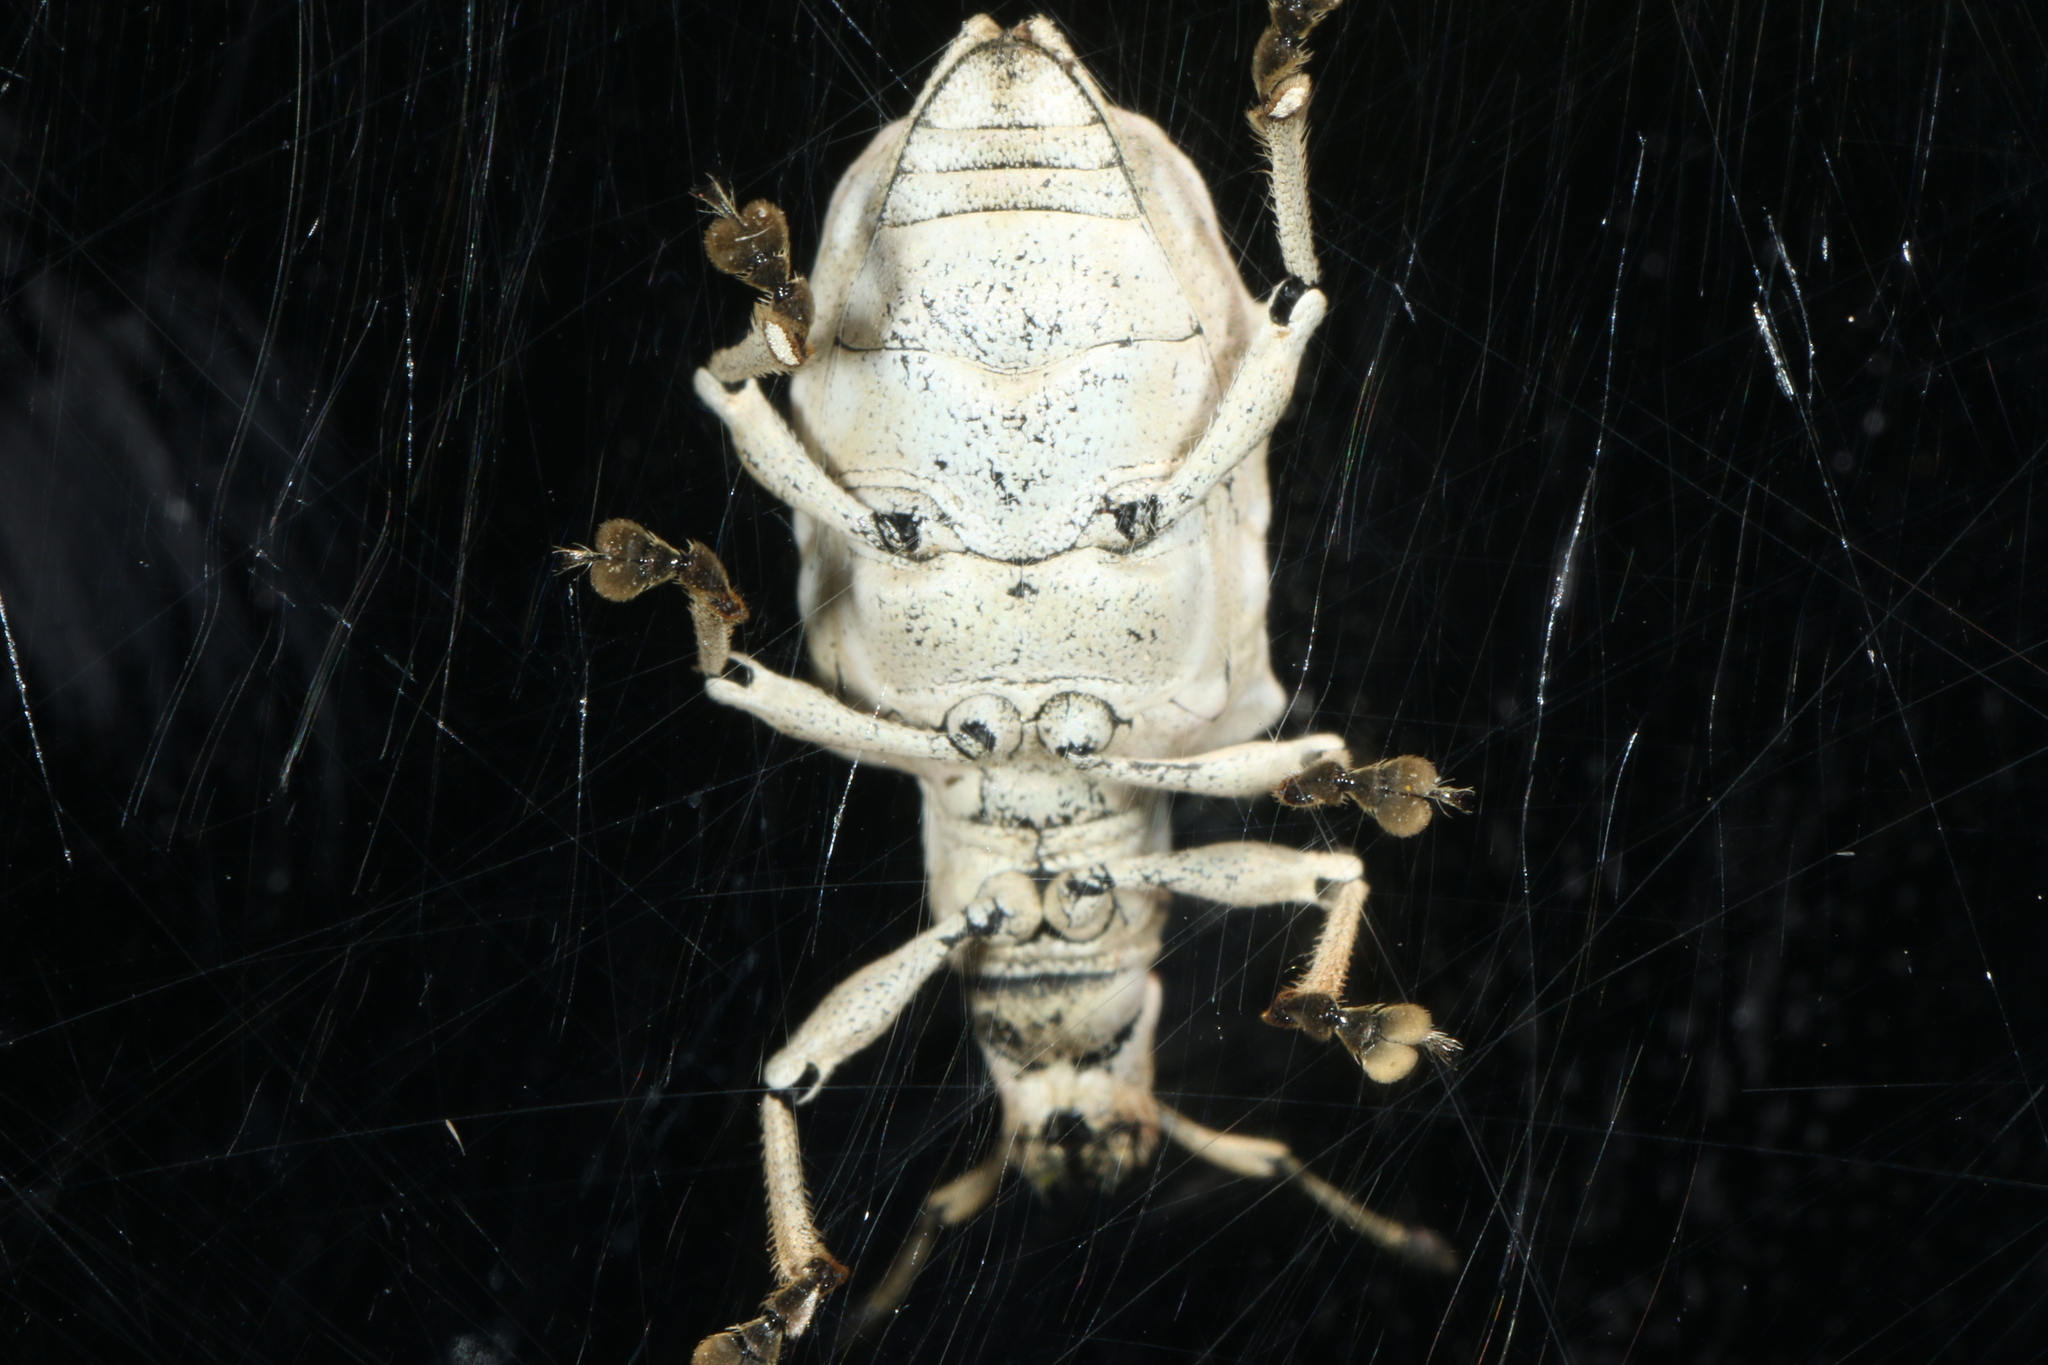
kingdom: Animalia
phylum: Arthropoda
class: Insecta
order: Coleoptera
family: Curculionidae
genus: Platyomus
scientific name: Platyomus piscatorius
